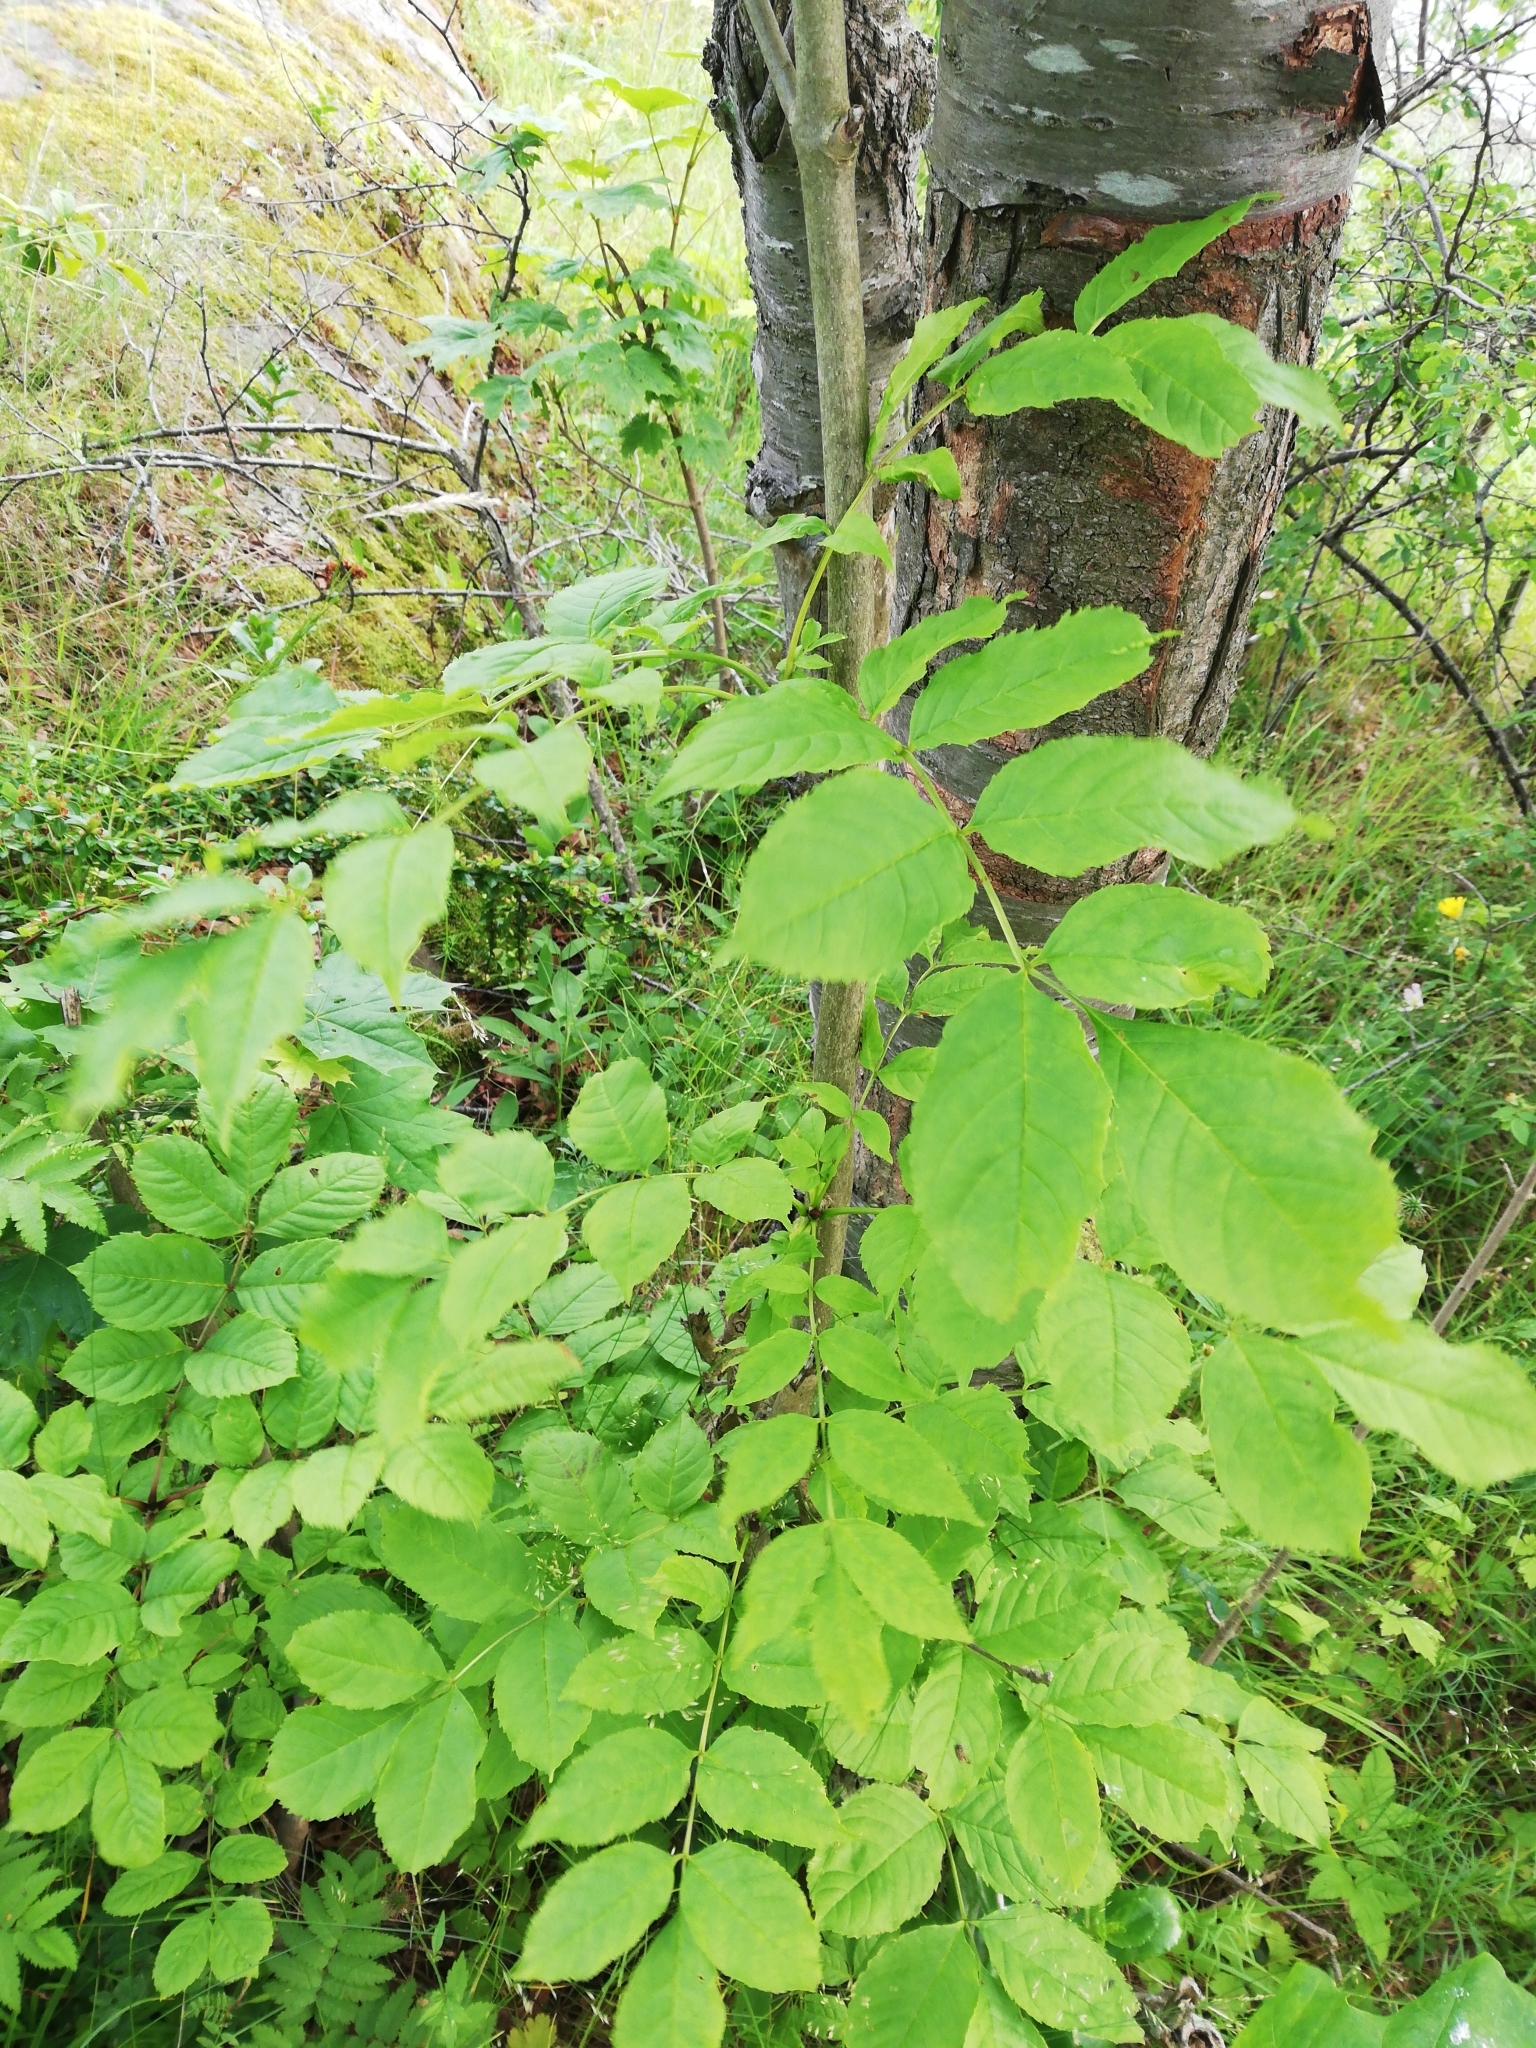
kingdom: Plantae
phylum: Tracheophyta
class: Magnoliopsida
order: Lamiales
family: Oleaceae
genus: Fraxinus
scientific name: Fraxinus excelsior
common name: European ash
